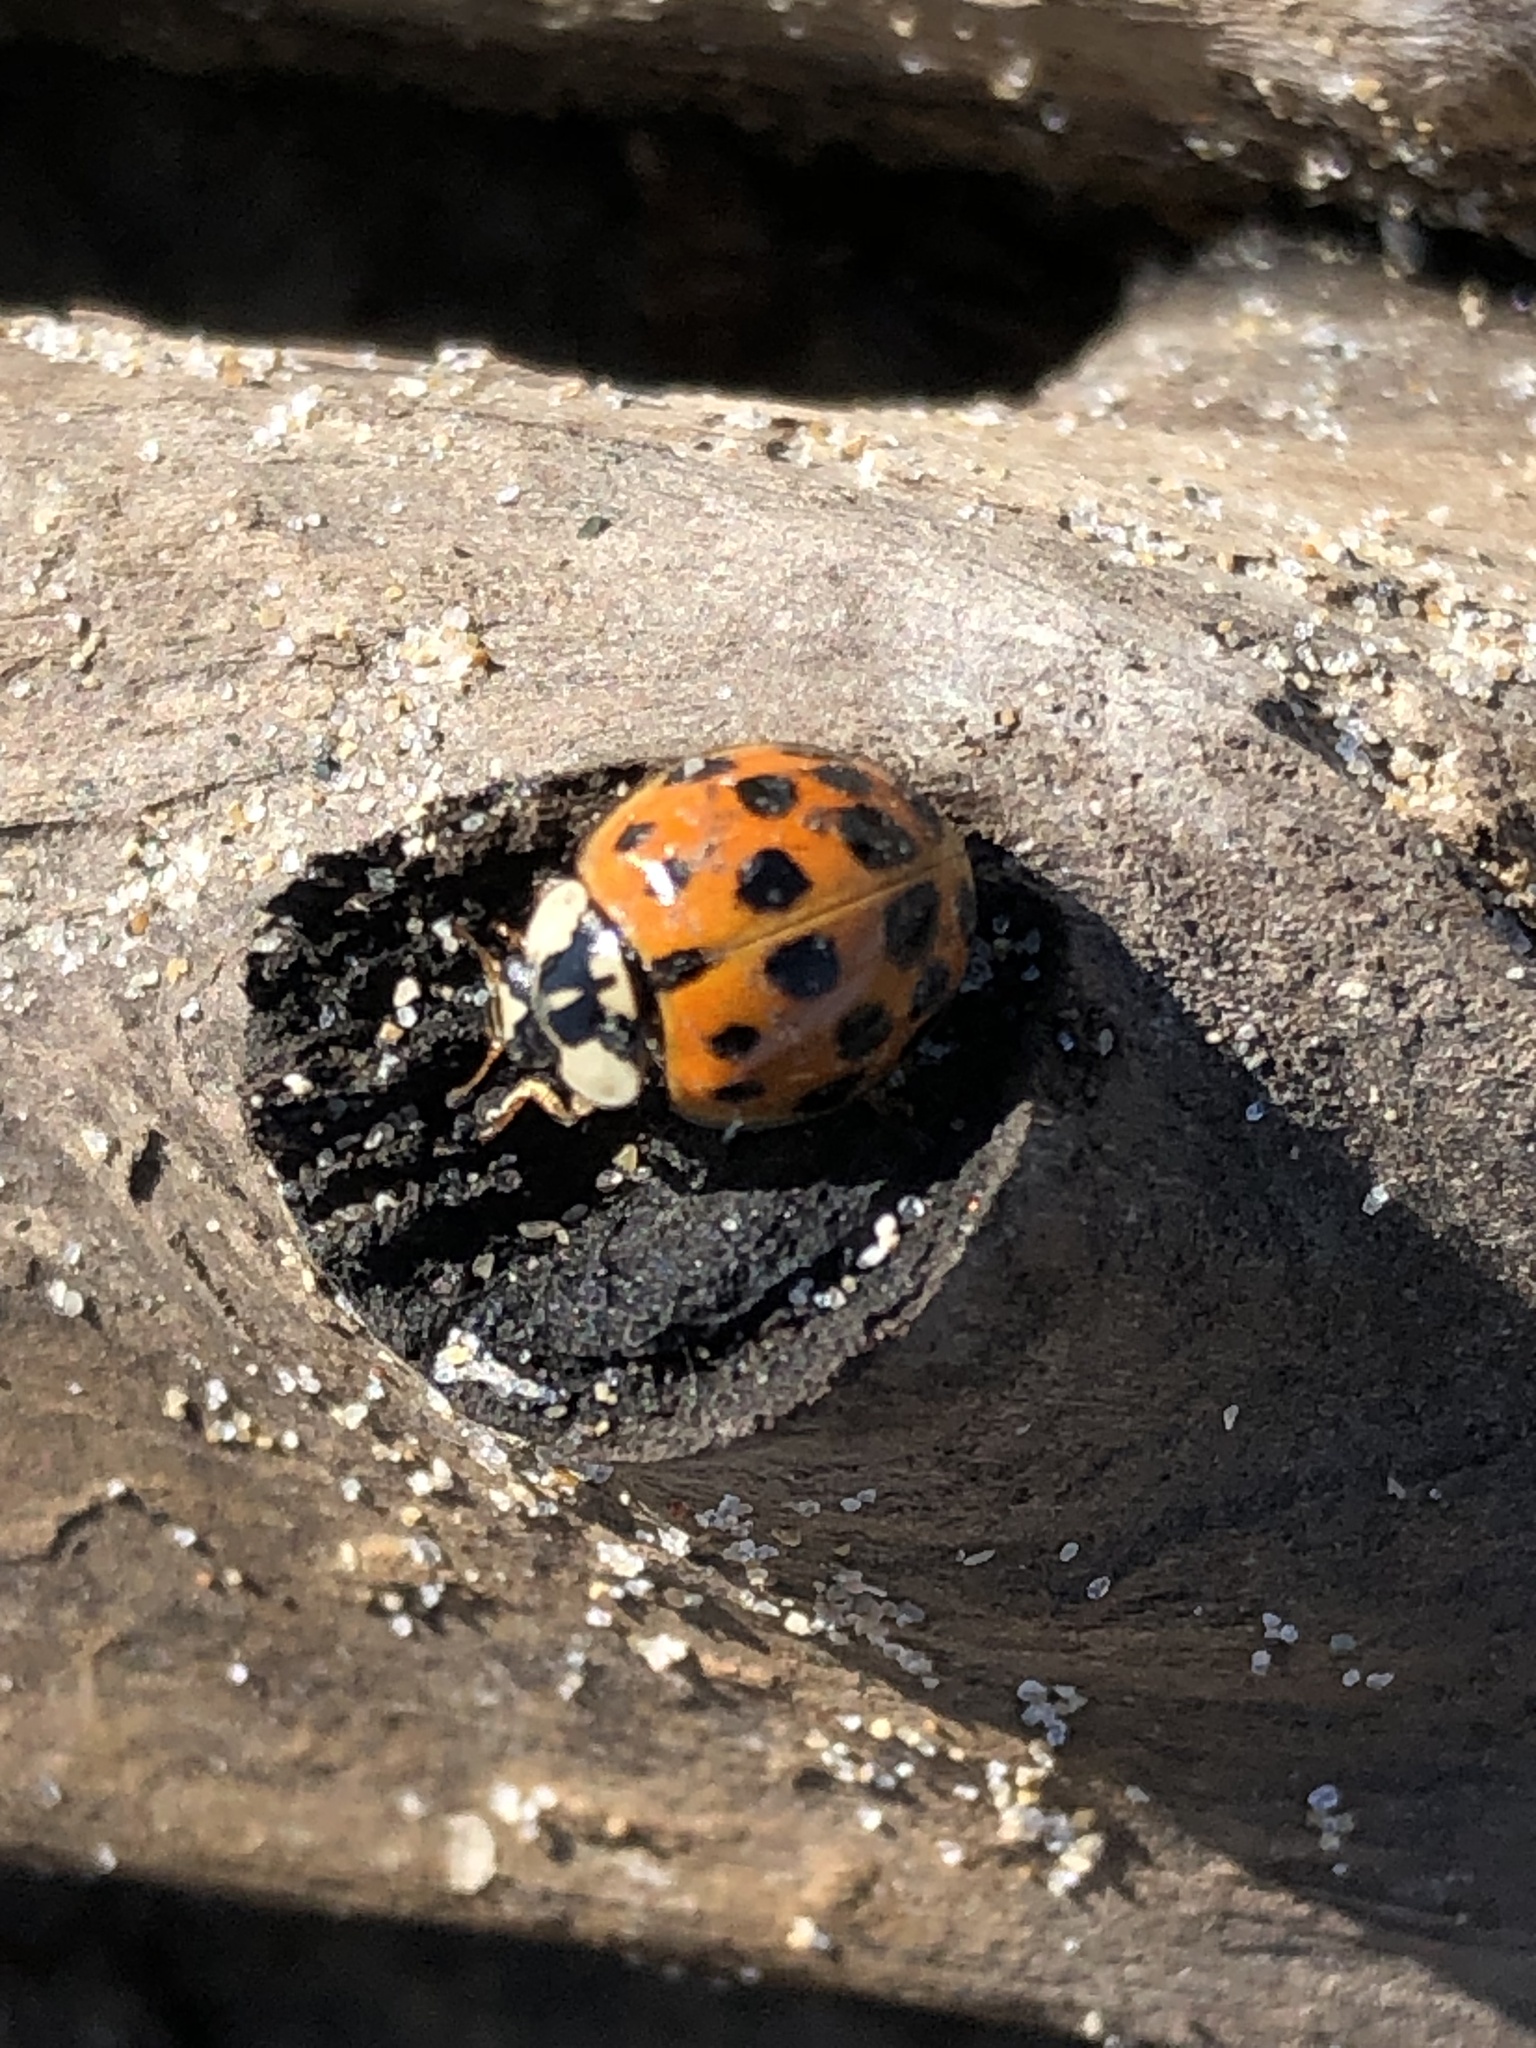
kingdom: Animalia
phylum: Arthropoda
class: Insecta
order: Coleoptera
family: Coccinellidae
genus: Harmonia
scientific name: Harmonia axyridis
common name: Harlequin ladybird
